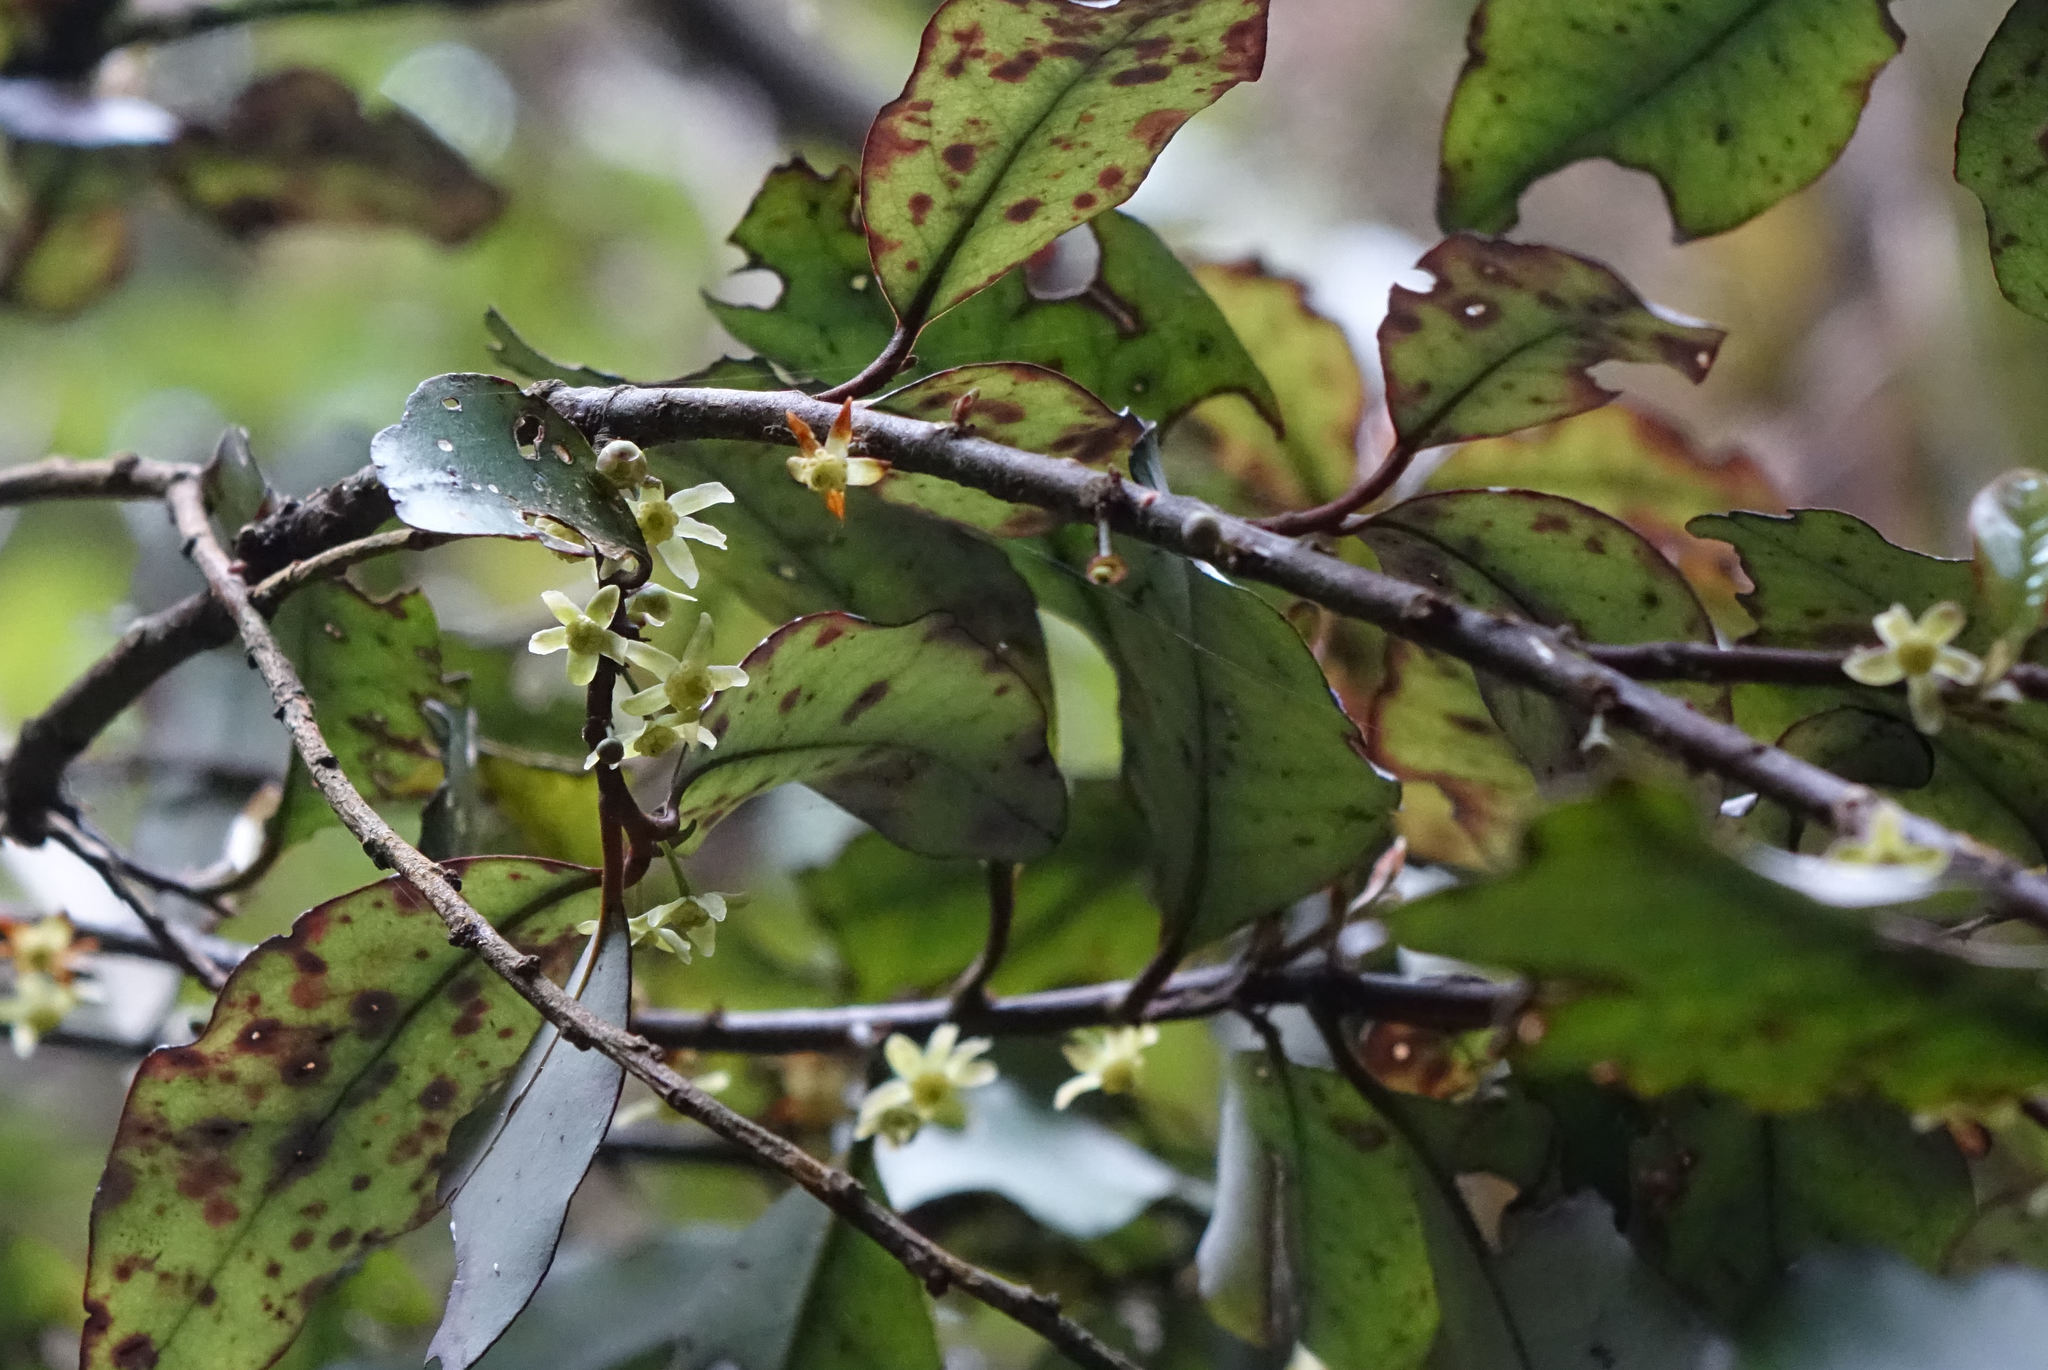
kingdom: Plantae
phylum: Tracheophyta
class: Magnoliopsida
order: Canellales
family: Winteraceae
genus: Pseudowintera
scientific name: Pseudowintera colorata
